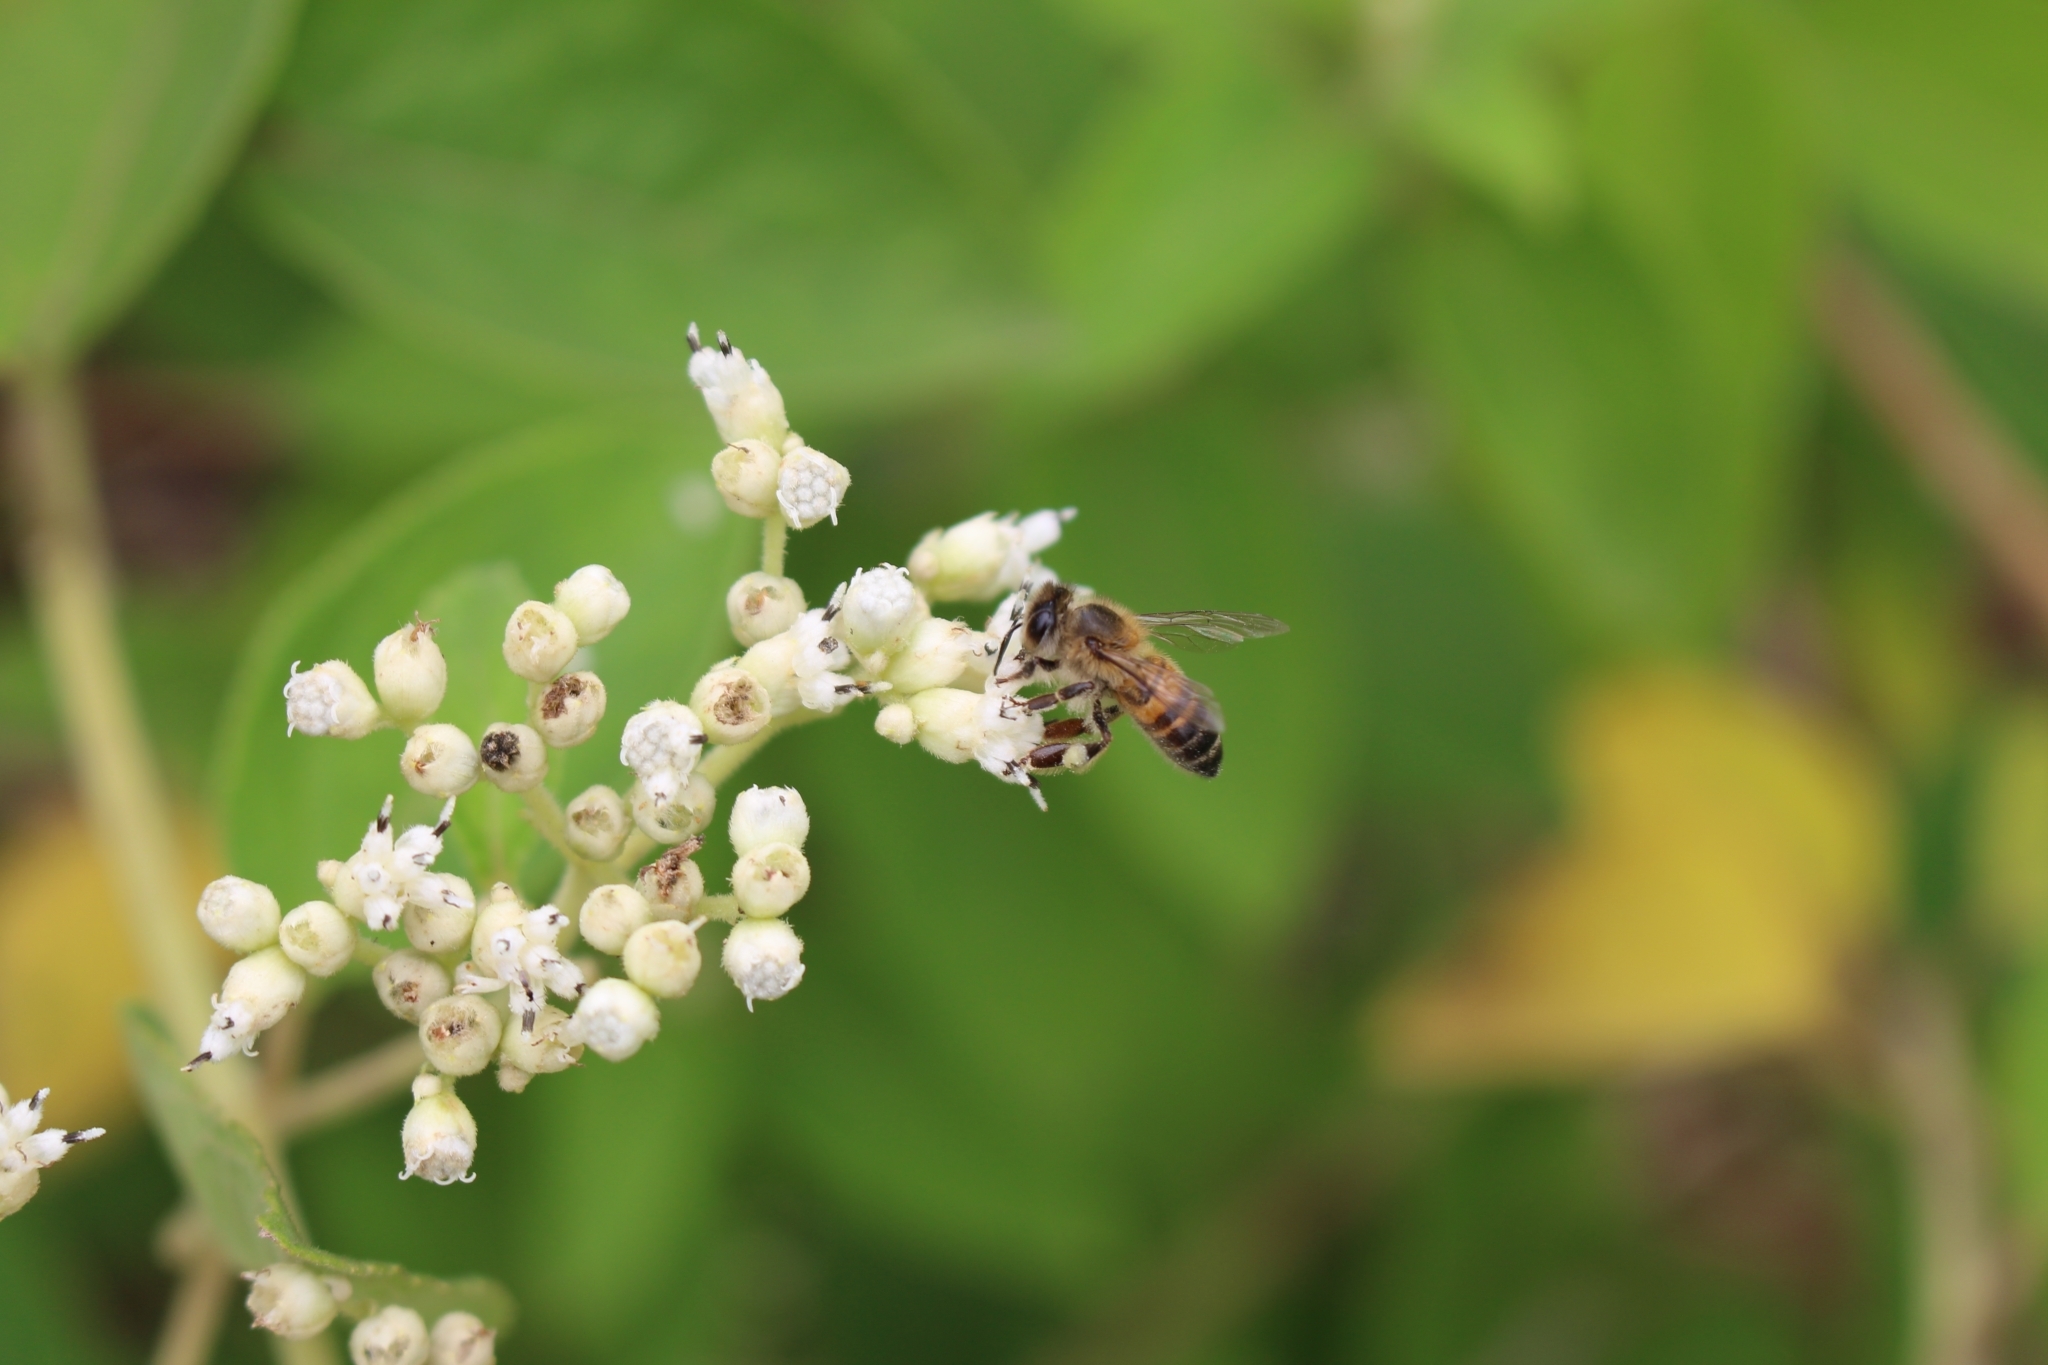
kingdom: Animalia
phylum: Arthropoda
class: Insecta
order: Hymenoptera
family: Apidae
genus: Apis
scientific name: Apis mellifera
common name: Honey bee
